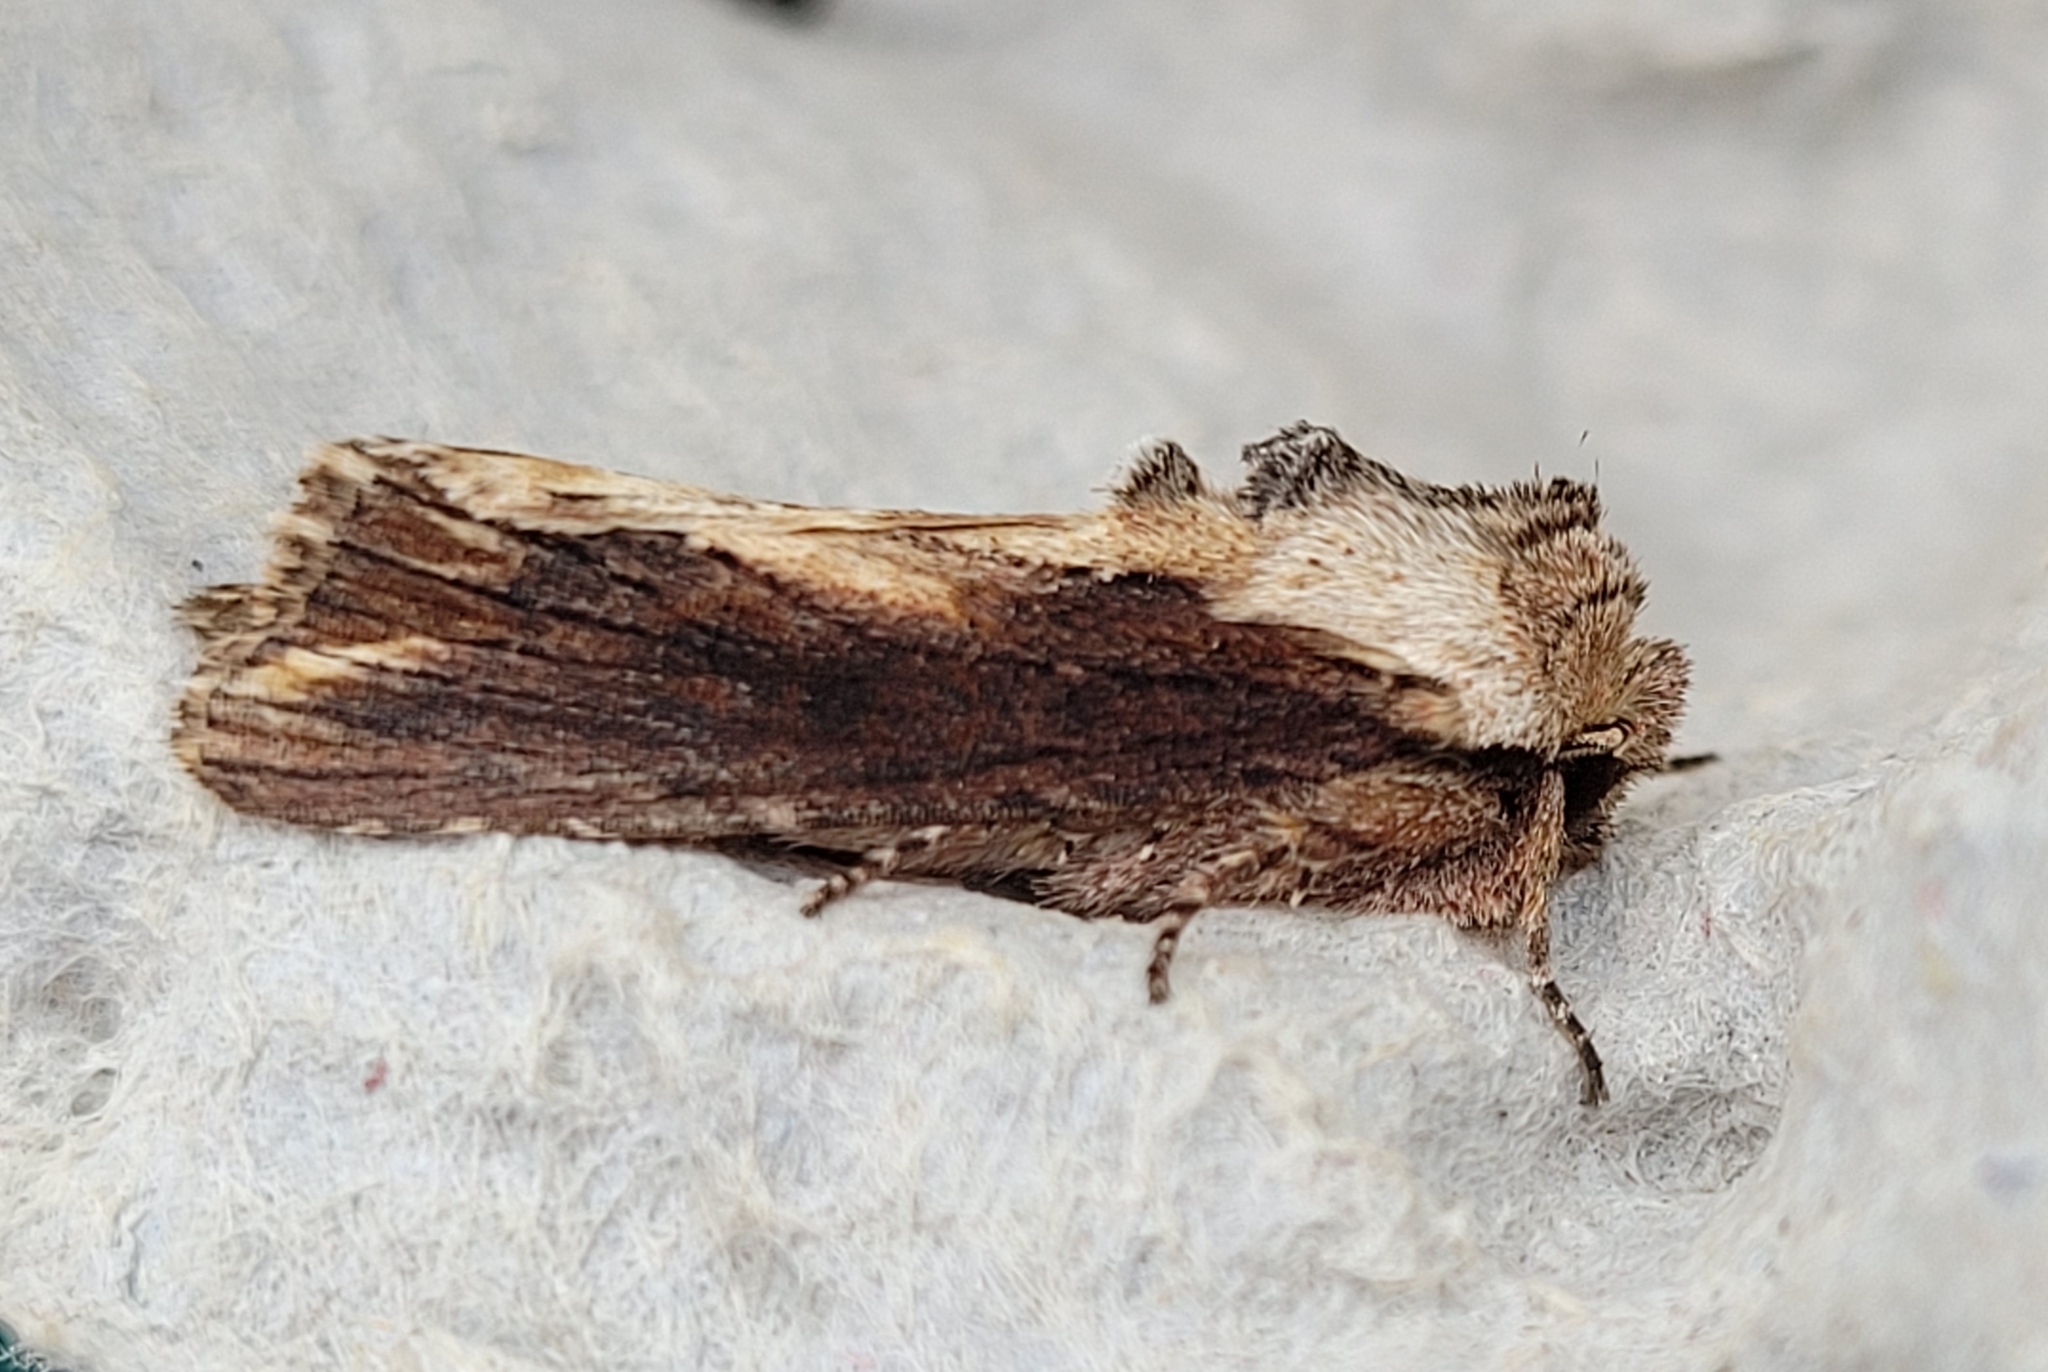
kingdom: Animalia
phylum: Arthropoda
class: Insecta
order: Lepidoptera
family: Noctuidae
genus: Egira
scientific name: Egira conspicillaris
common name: Silver cloud
